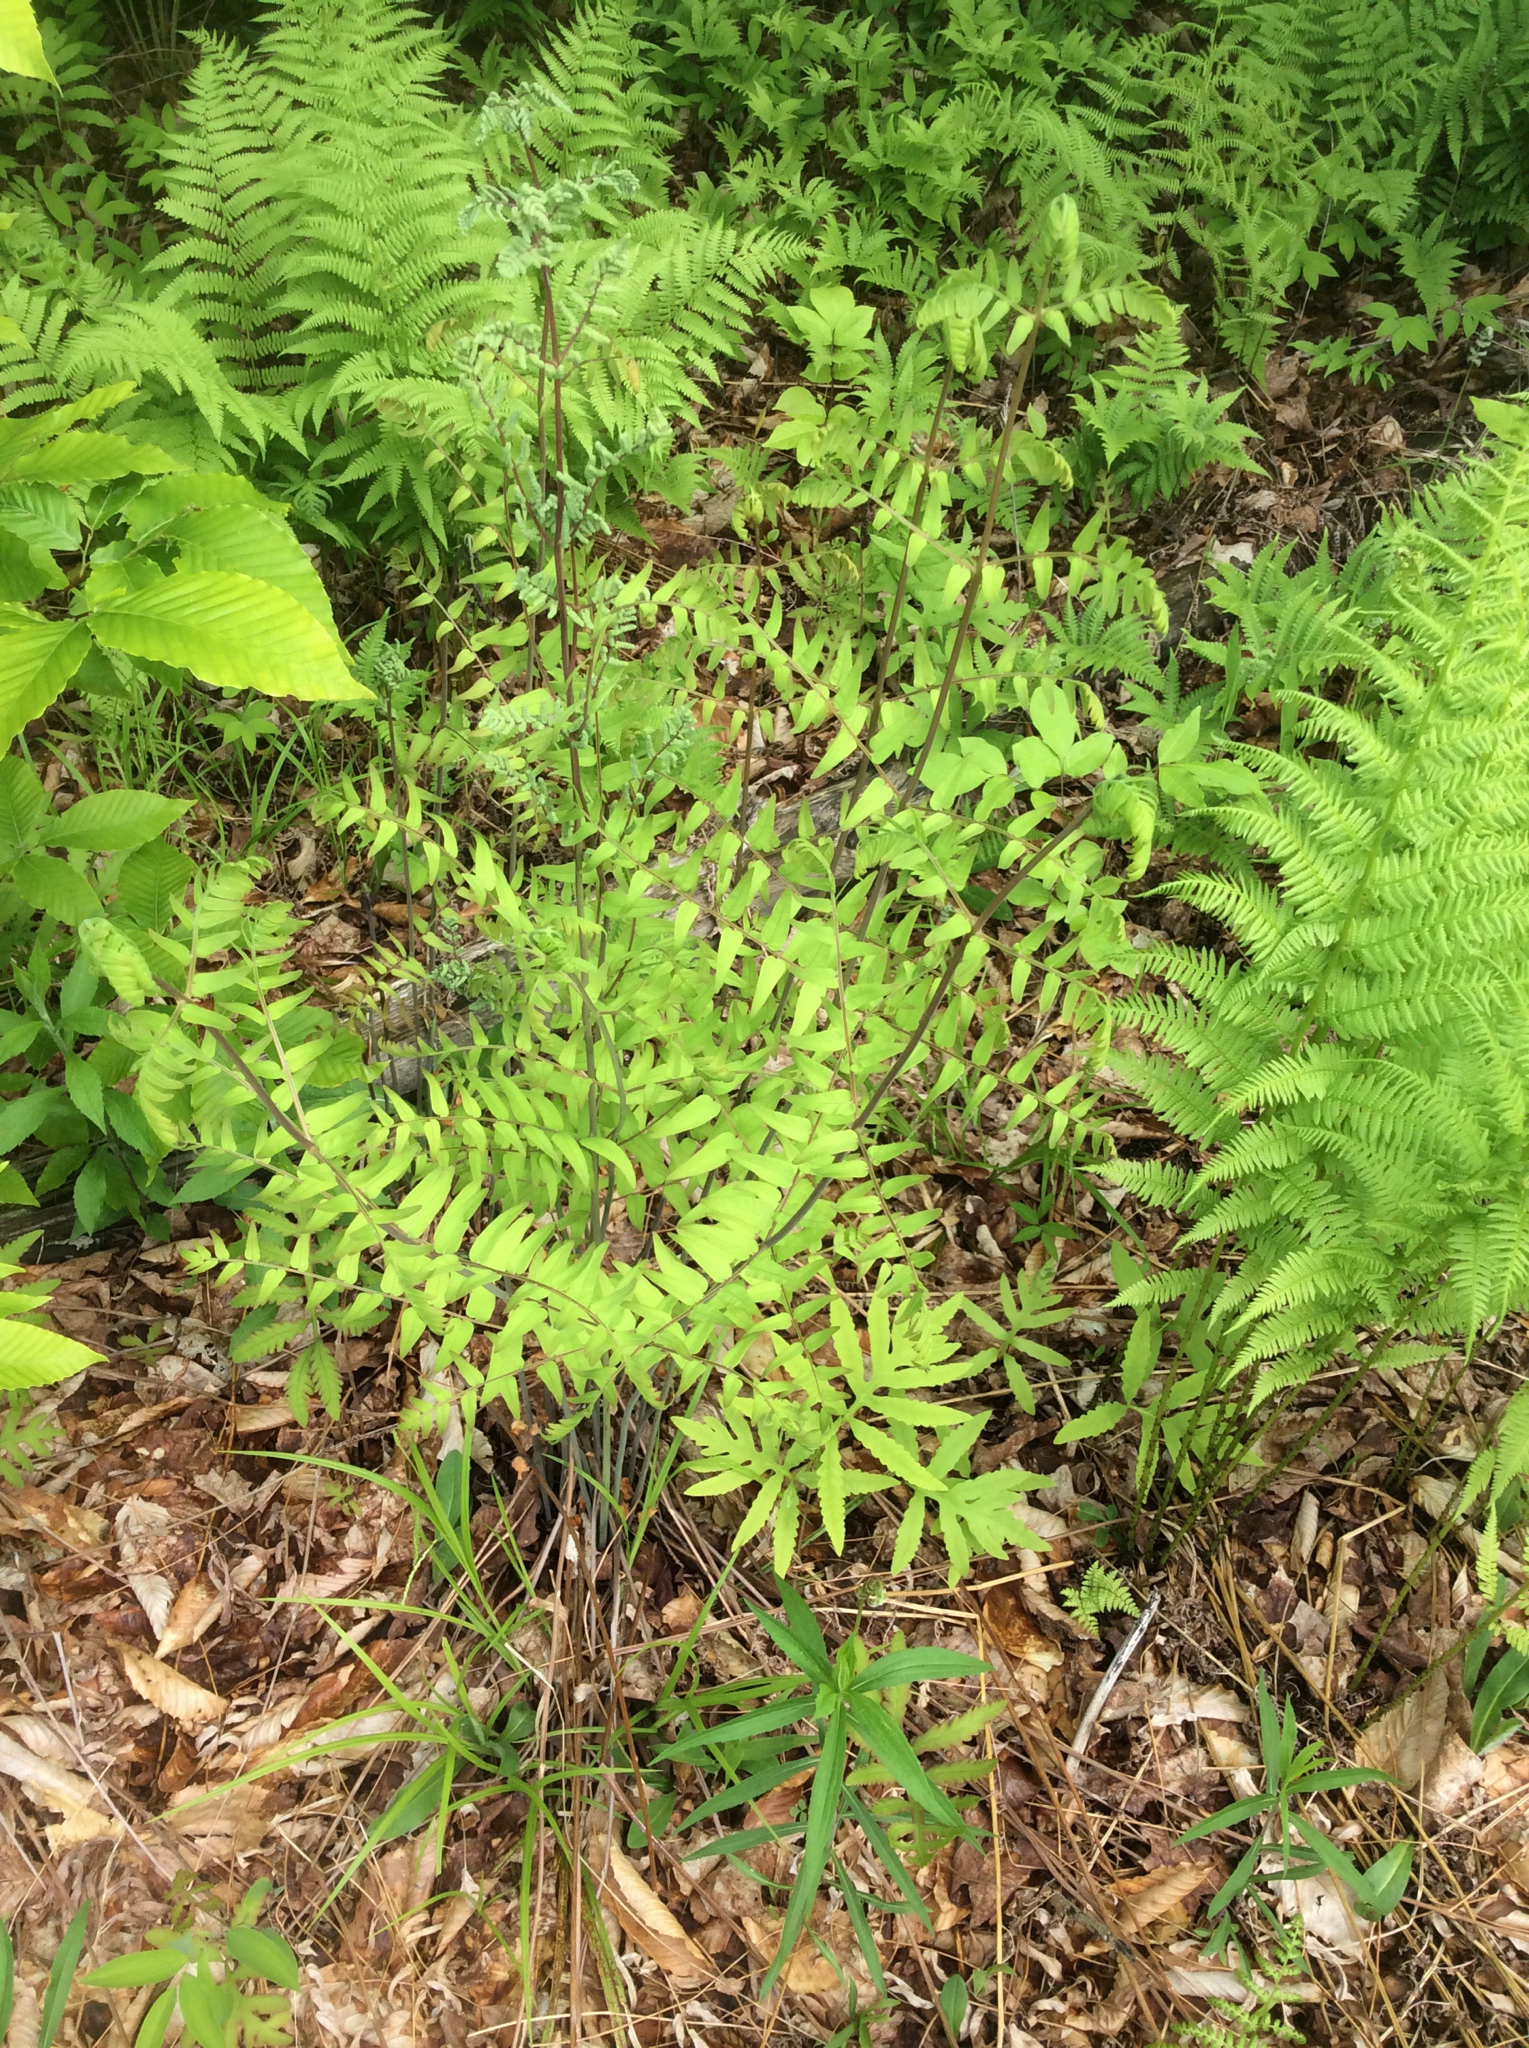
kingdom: Plantae
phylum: Tracheophyta
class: Polypodiopsida
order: Osmundales
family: Osmundaceae
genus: Osmunda
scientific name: Osmunda spectabilis
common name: American royal fern
